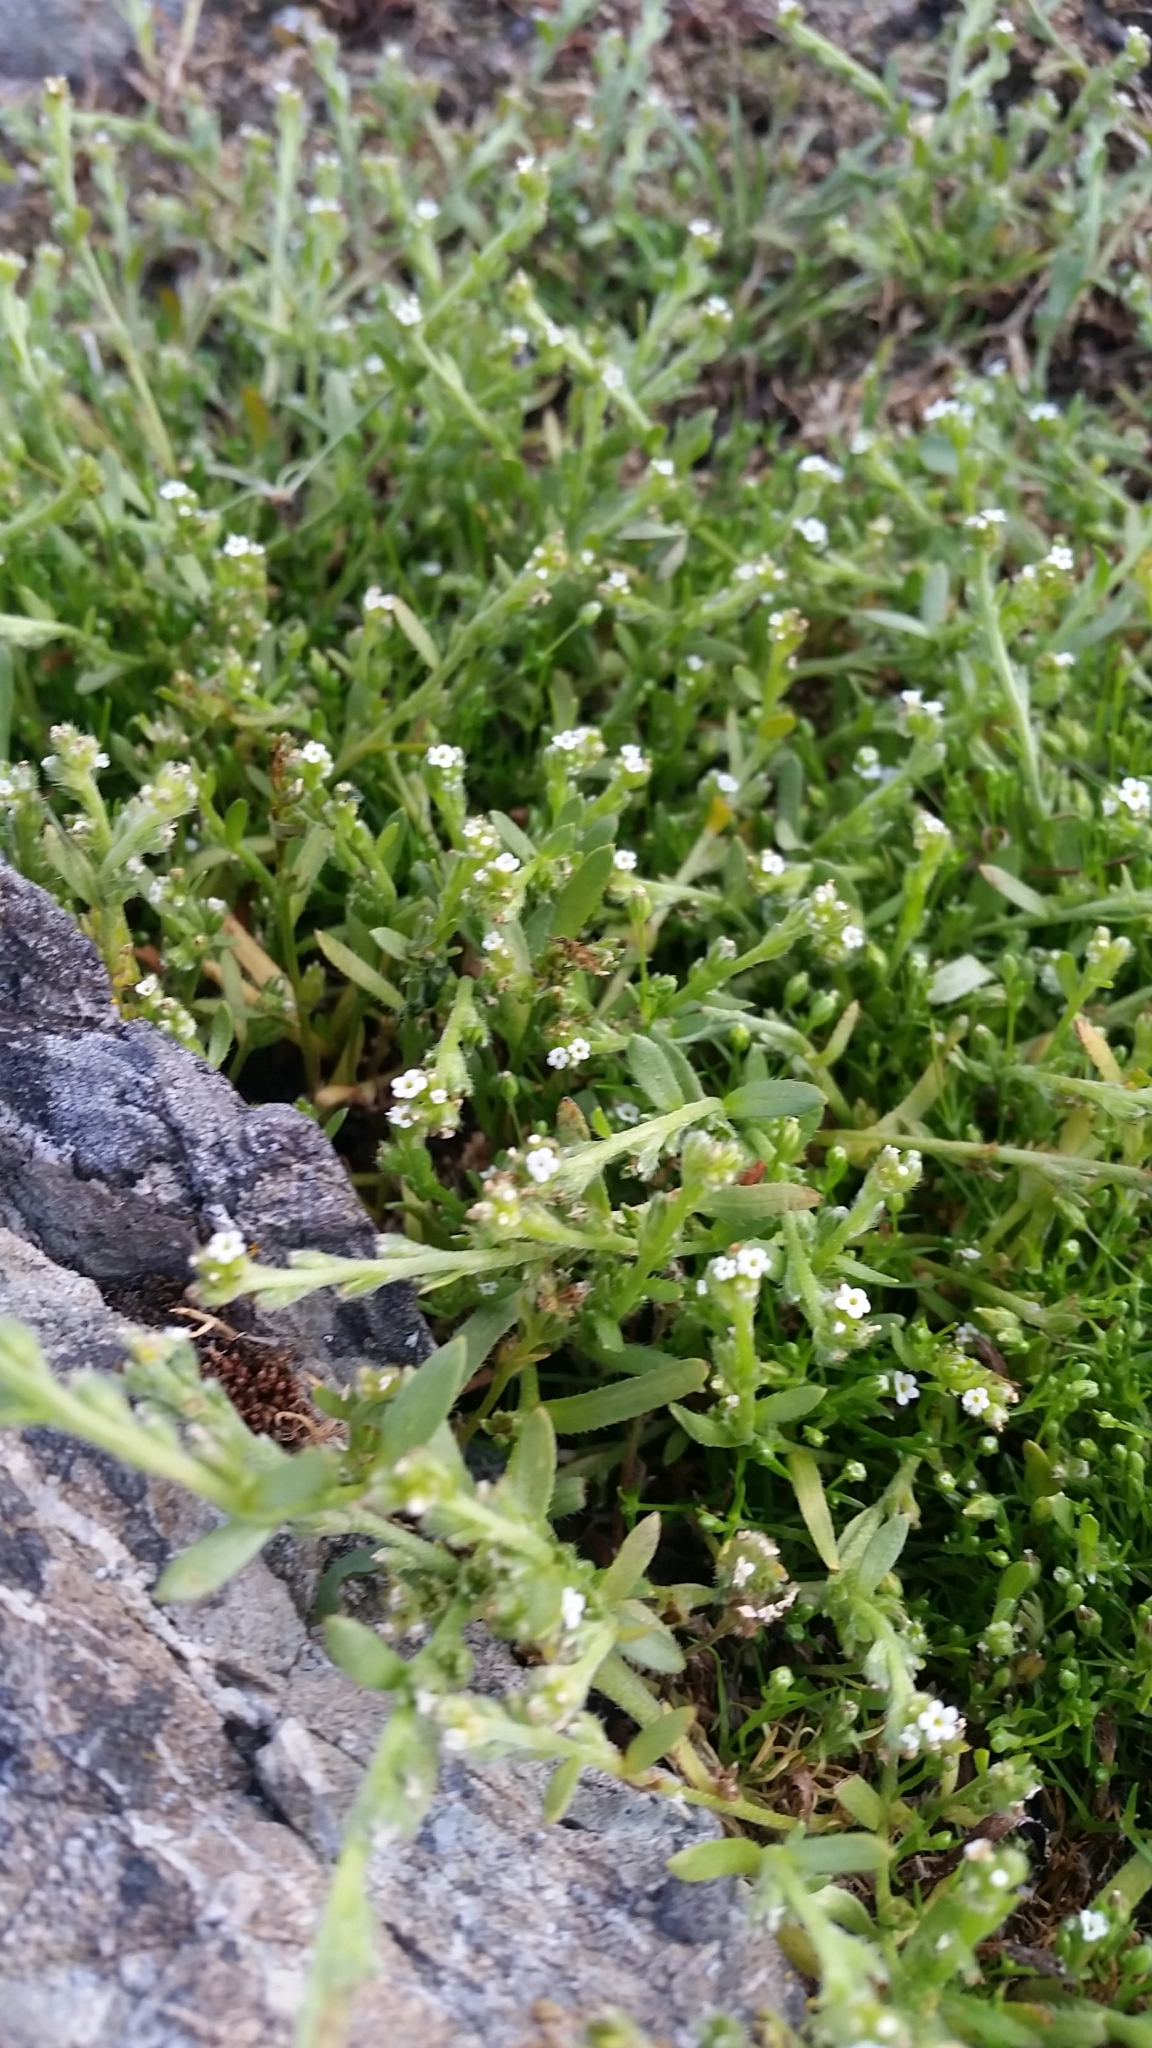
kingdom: Plantae
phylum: Tracheophyta
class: Magnoliopsida
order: Boraginales
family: Boraginaceae
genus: Plagiobothrys
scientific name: Plagiobothrys scouleri
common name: White forget-me-not
